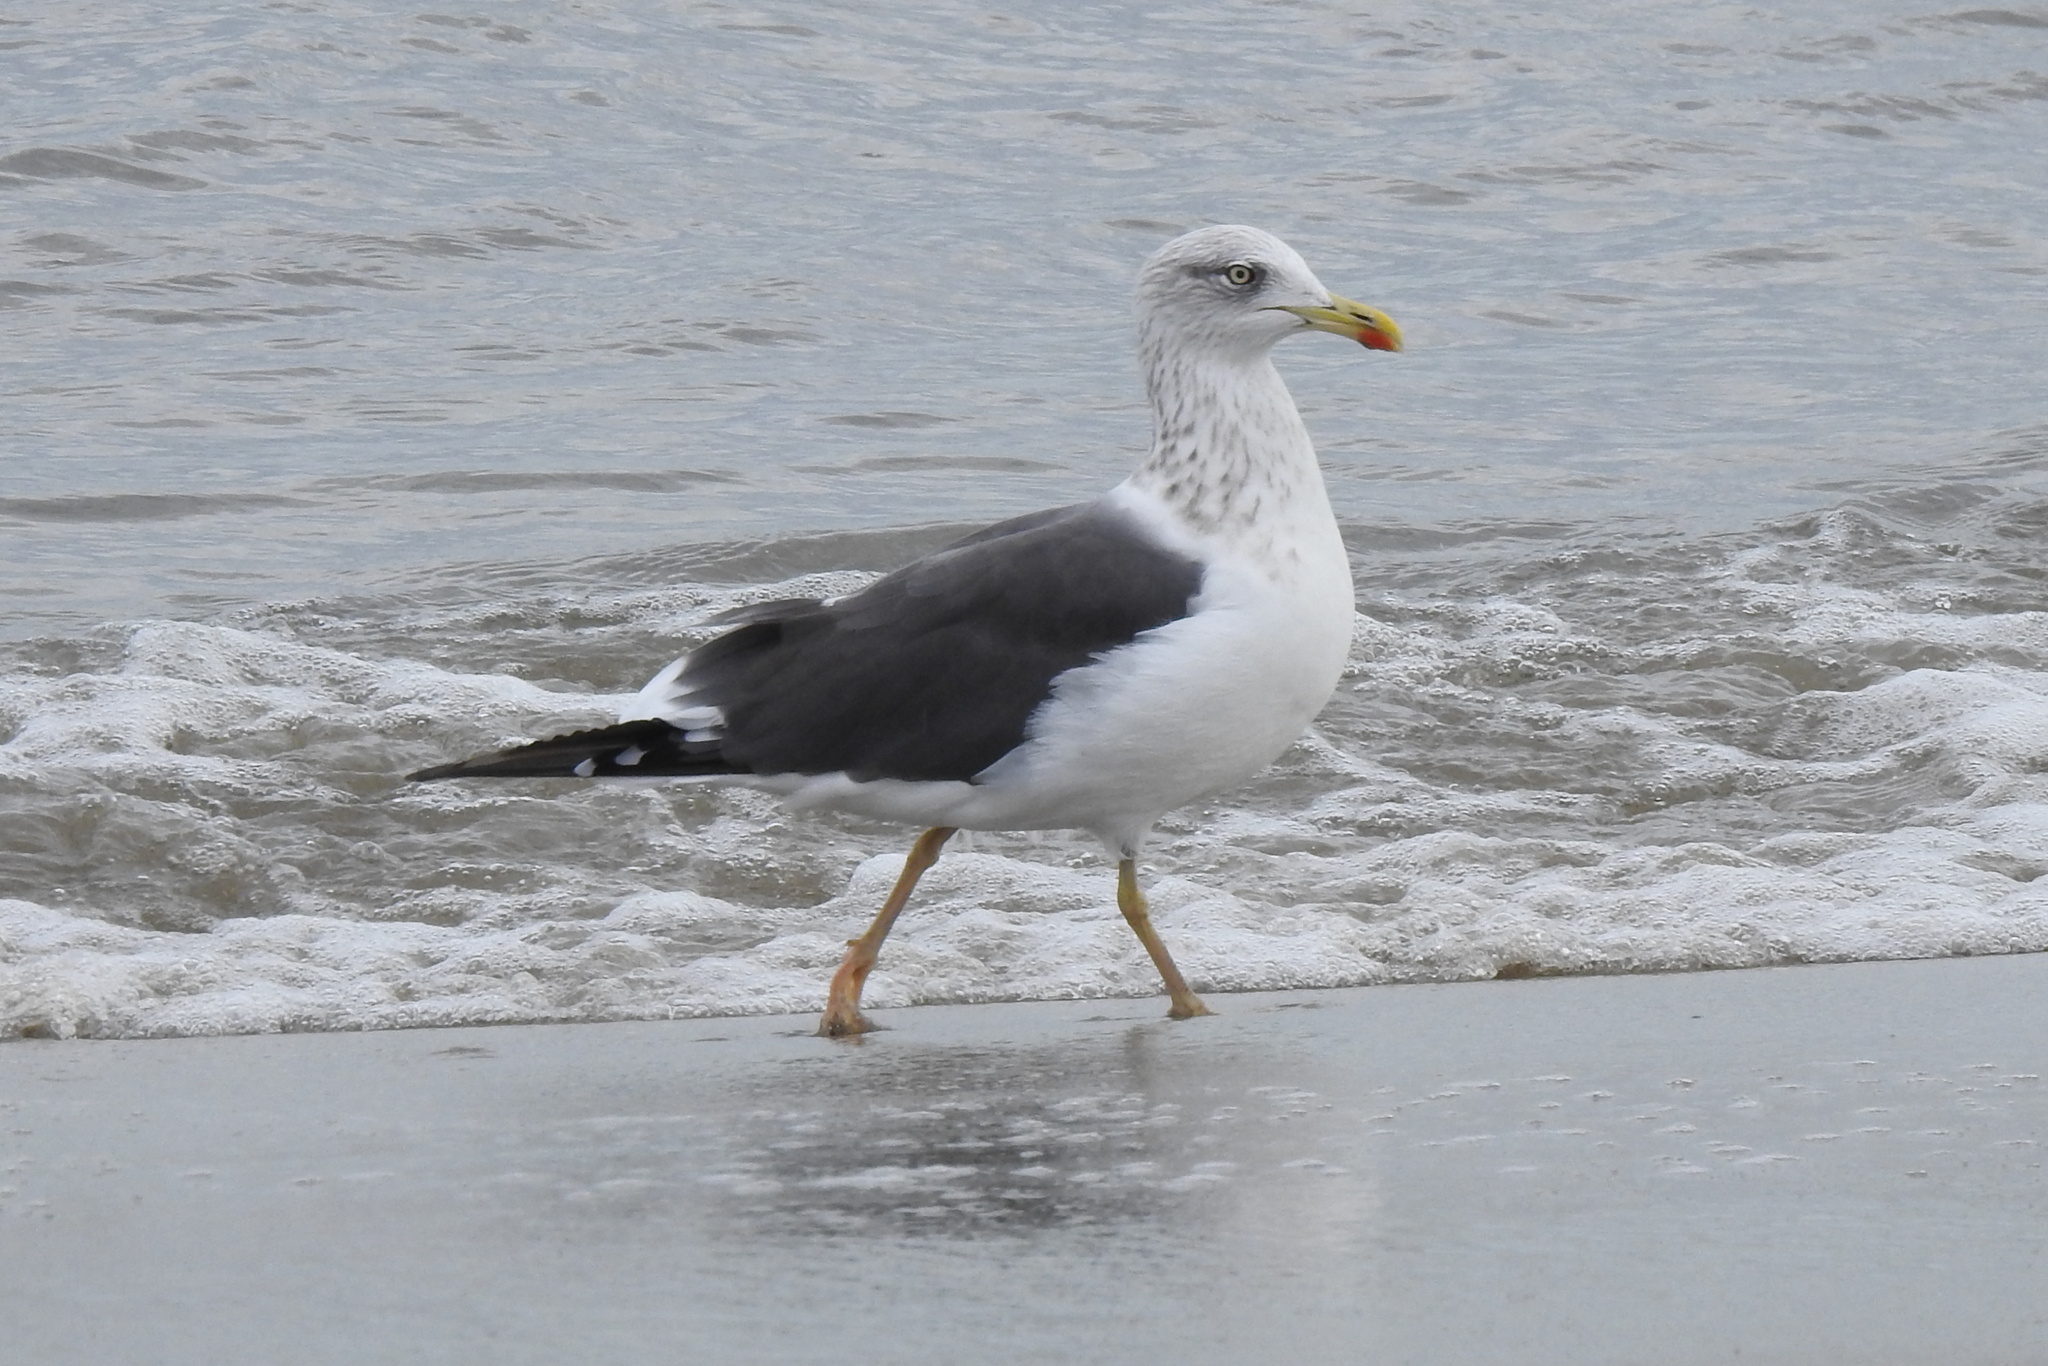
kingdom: Animalia
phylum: Chordata
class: Aves
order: Charadriiformes
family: Laridae
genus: Larus
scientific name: Larus fuscus
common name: Lesser black-backed gull
